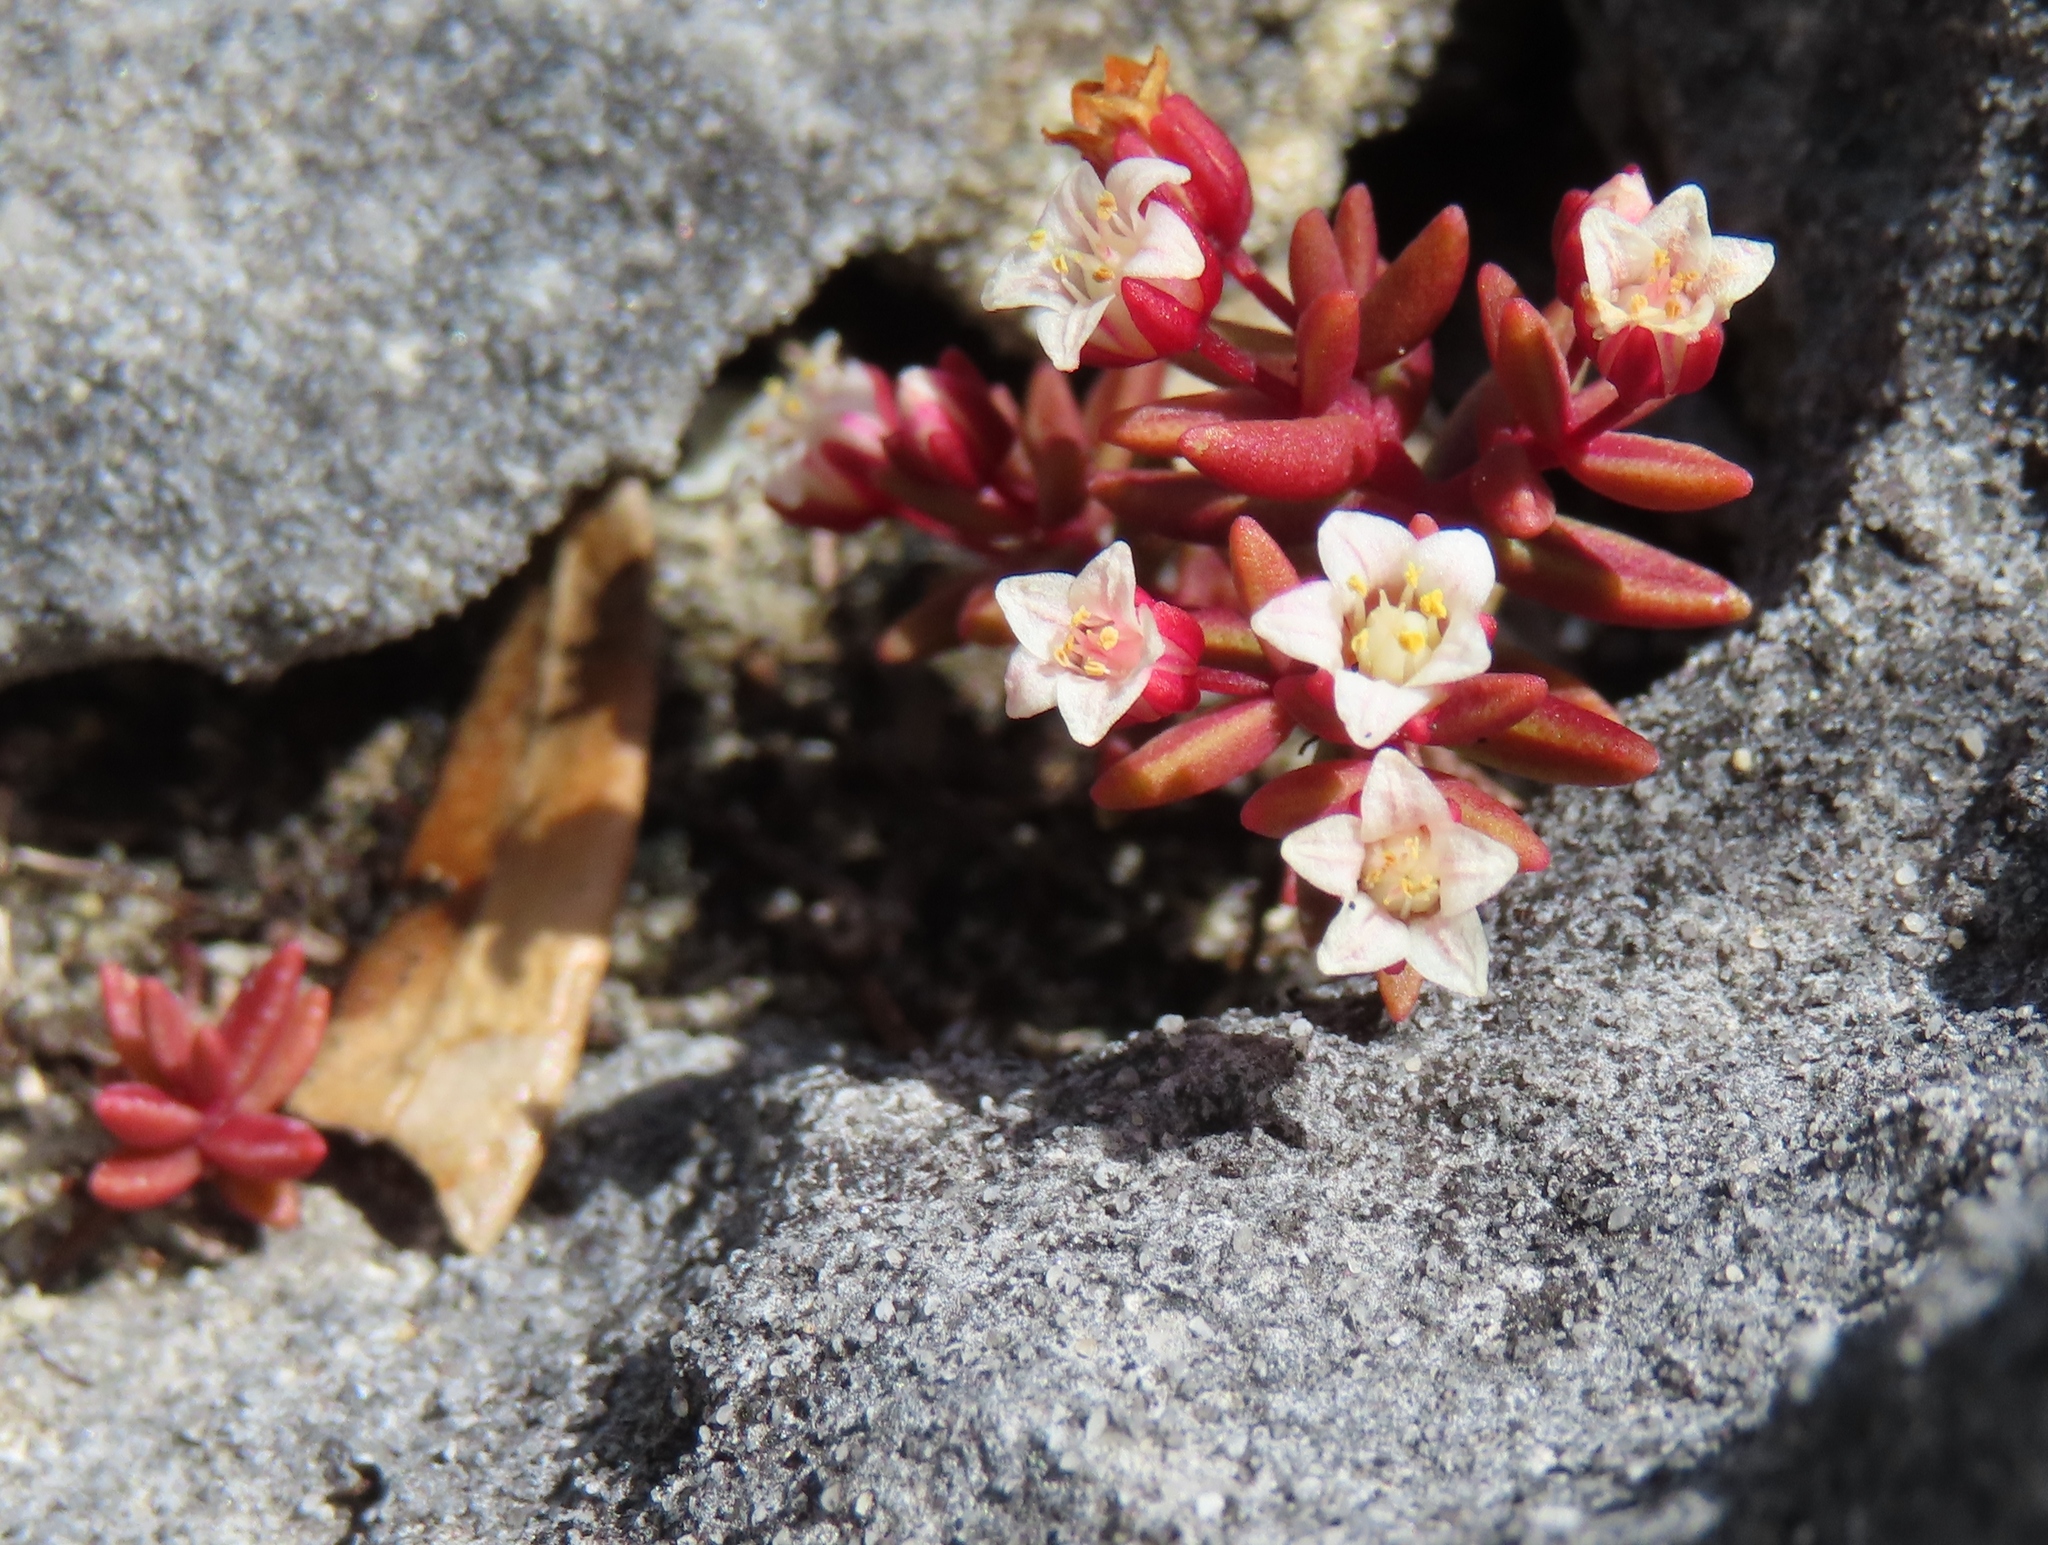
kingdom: Plantae
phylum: Tracheophyta
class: Magnoliopsida
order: Saxifragales
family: Crassulaceae
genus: Crassula
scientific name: Crassula expansa
